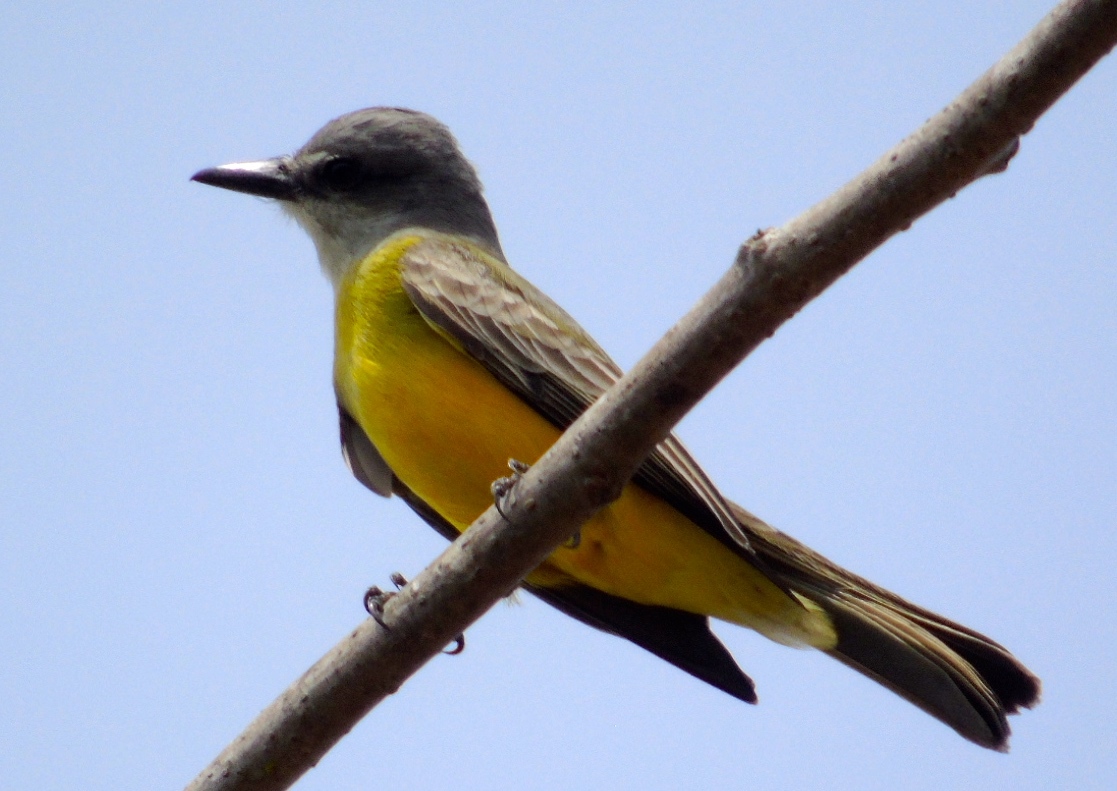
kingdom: Animalia
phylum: Chordata
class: Aves
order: Passeriformes
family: Tyrannidae
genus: Tyrannus
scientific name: Tyrannus melancholicus
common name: Tropical kingbird
